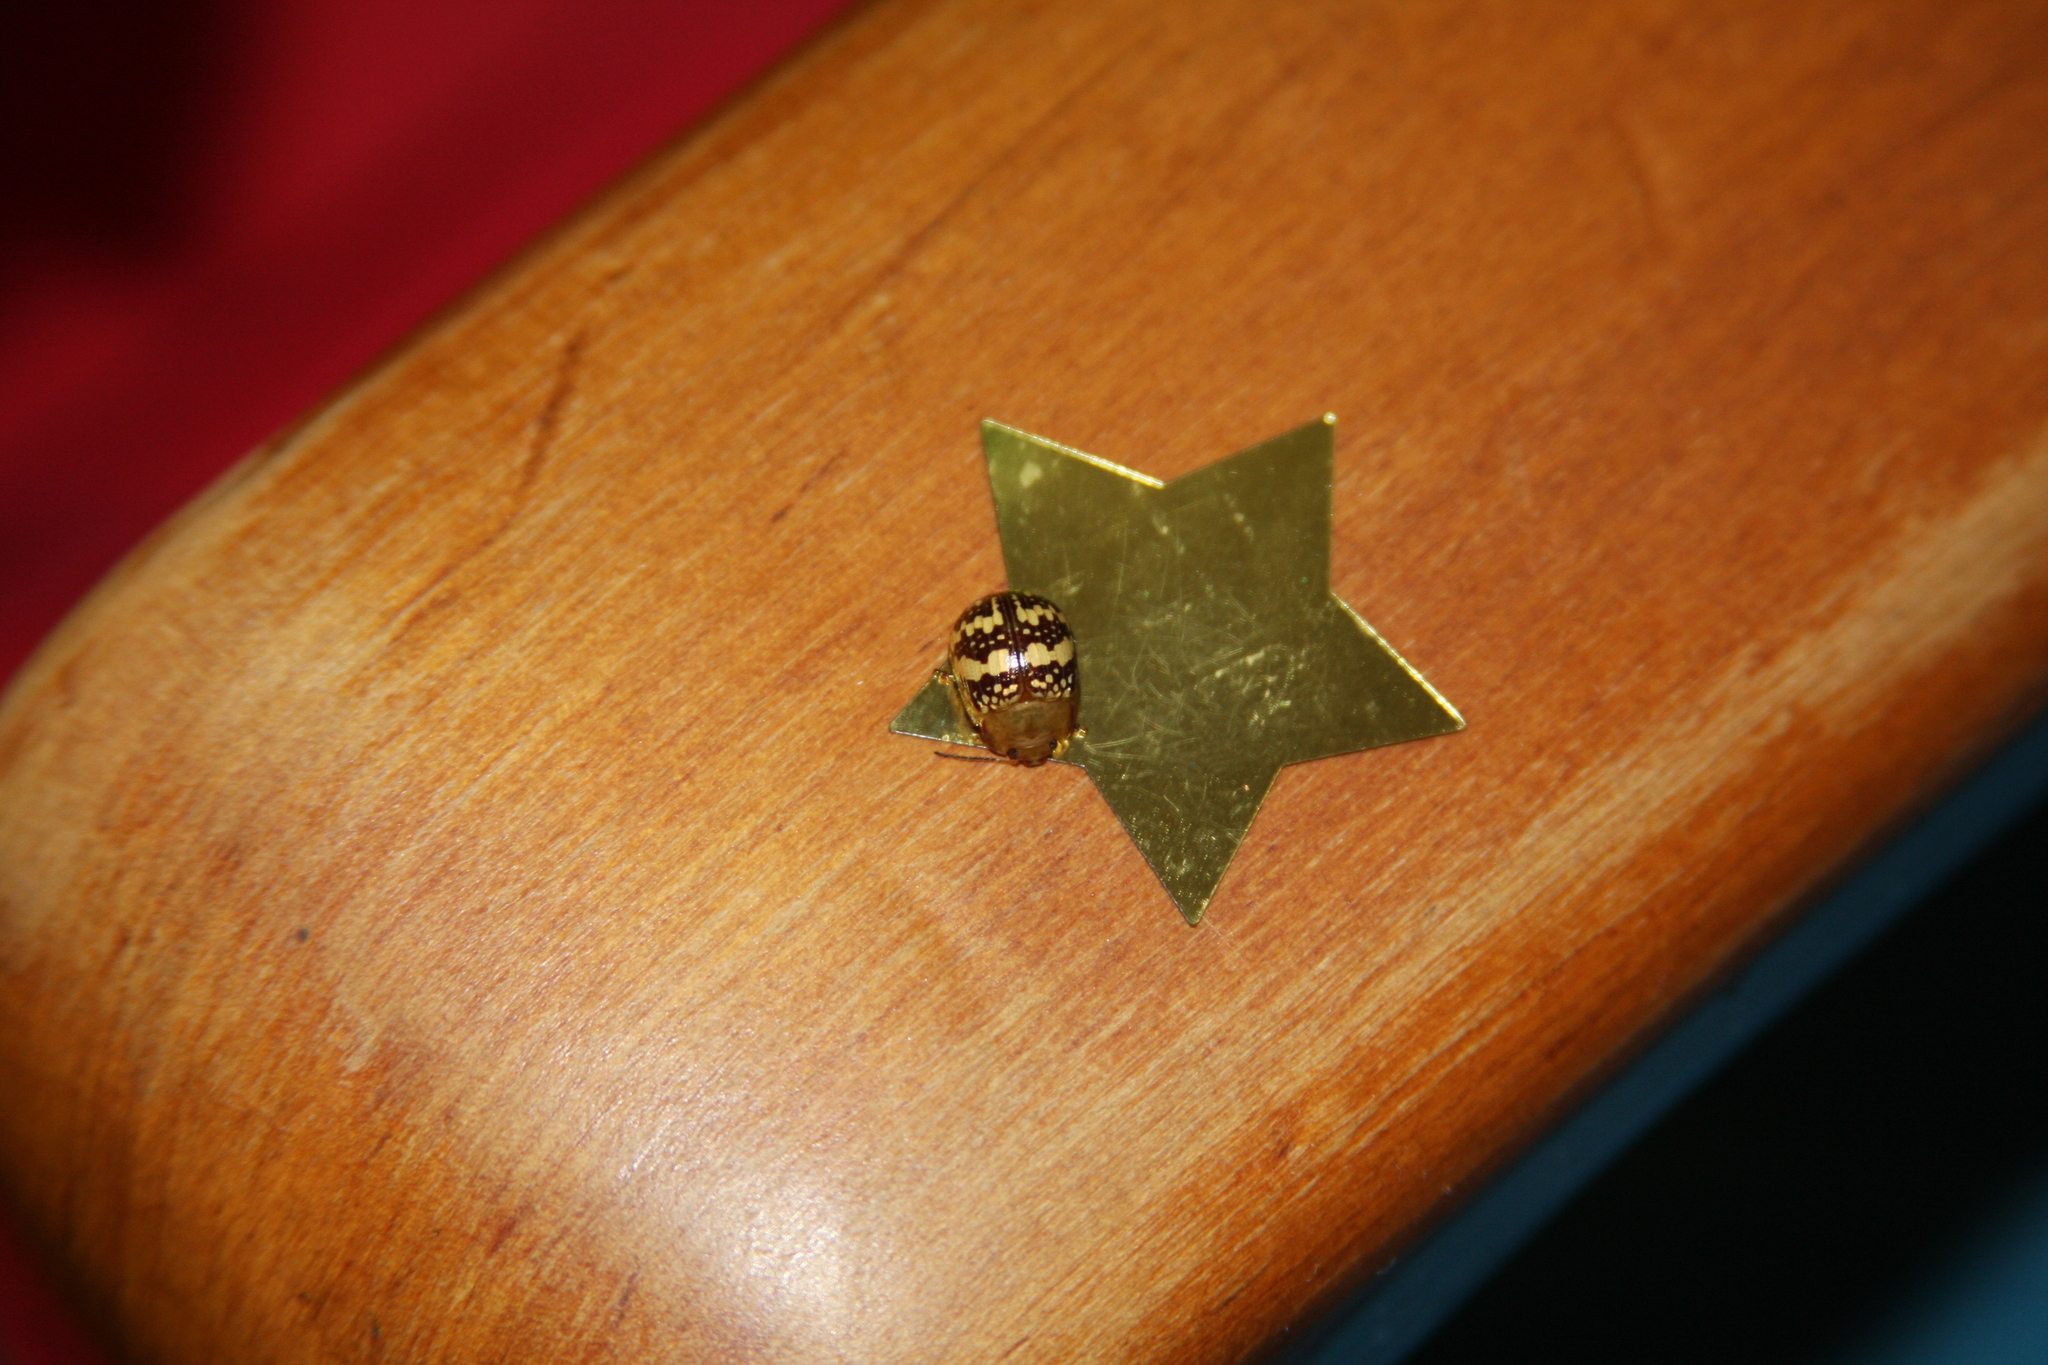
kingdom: Animalia
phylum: Arthropoda
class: Insecta
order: Coleoptera
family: Chrysomelidae
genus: Paropsis
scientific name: Paropsis
